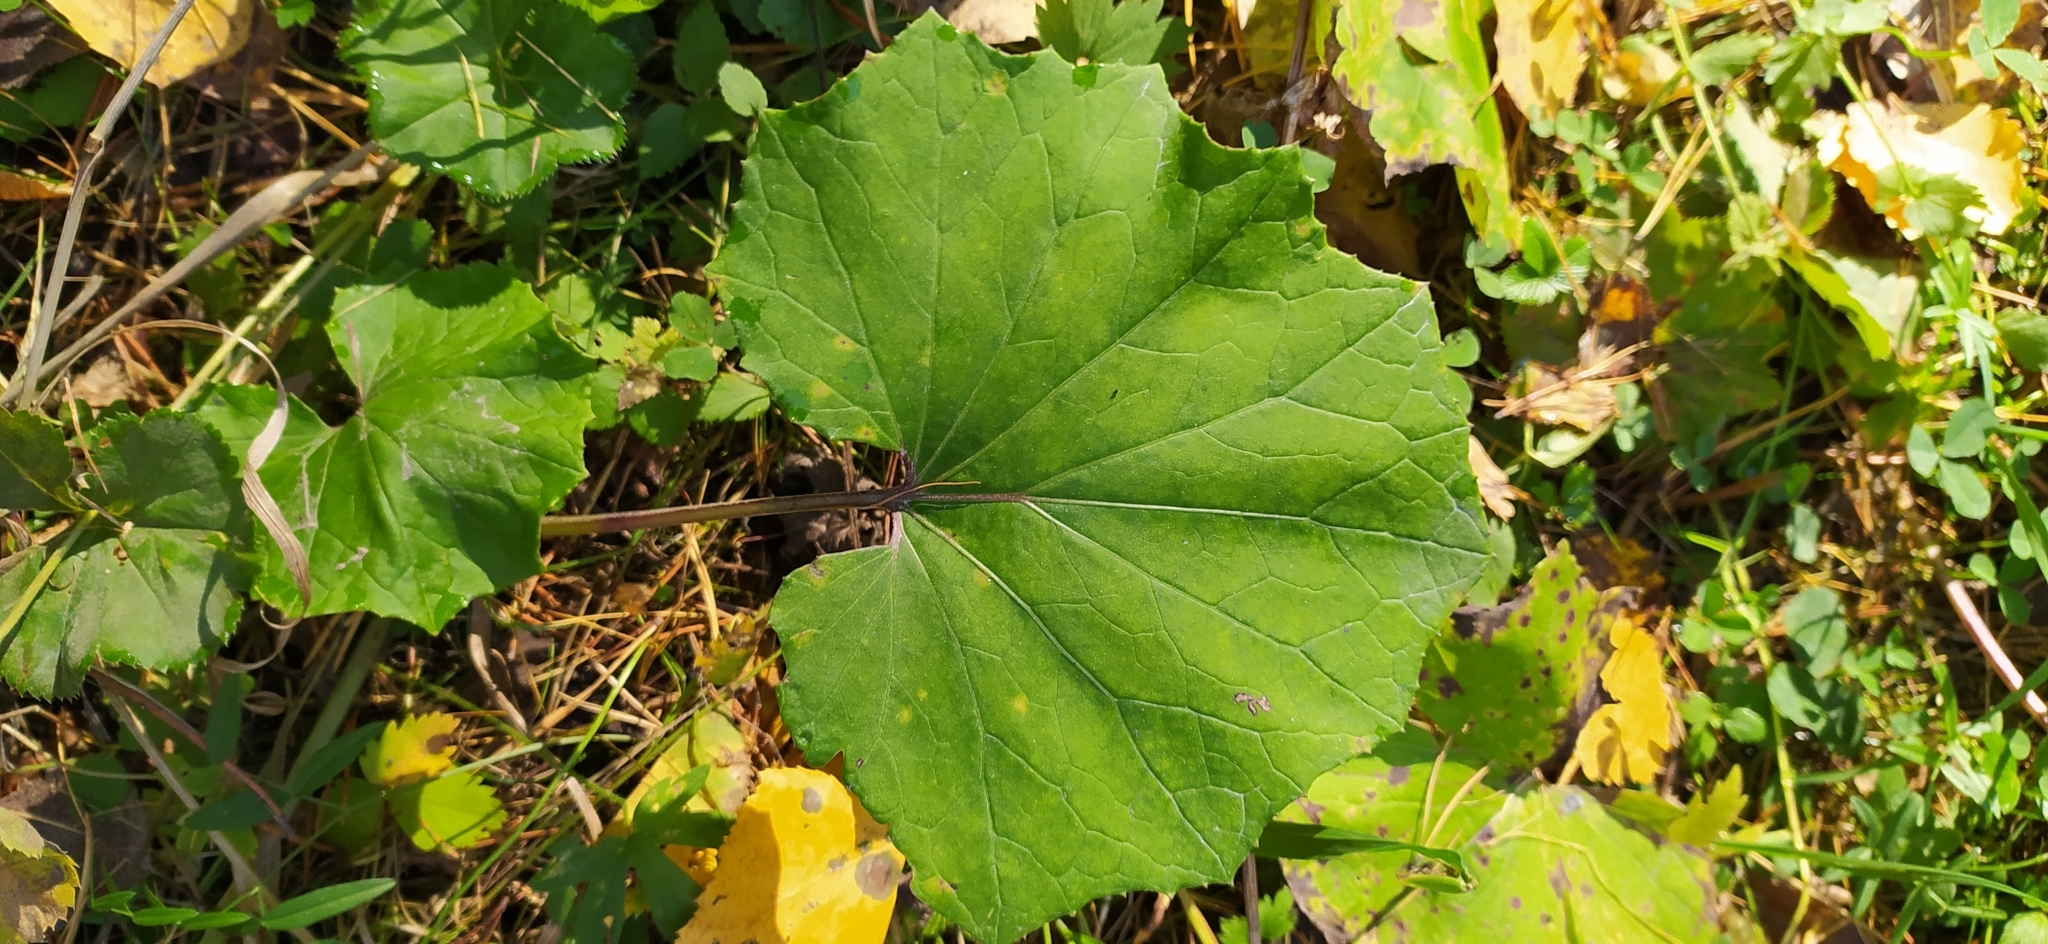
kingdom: Plantae
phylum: Tracheophyta
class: Magnoliopsida
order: Asterales
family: Asteraceae
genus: Tussilago
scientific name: Tussilago farfara
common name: Coltsfoot
